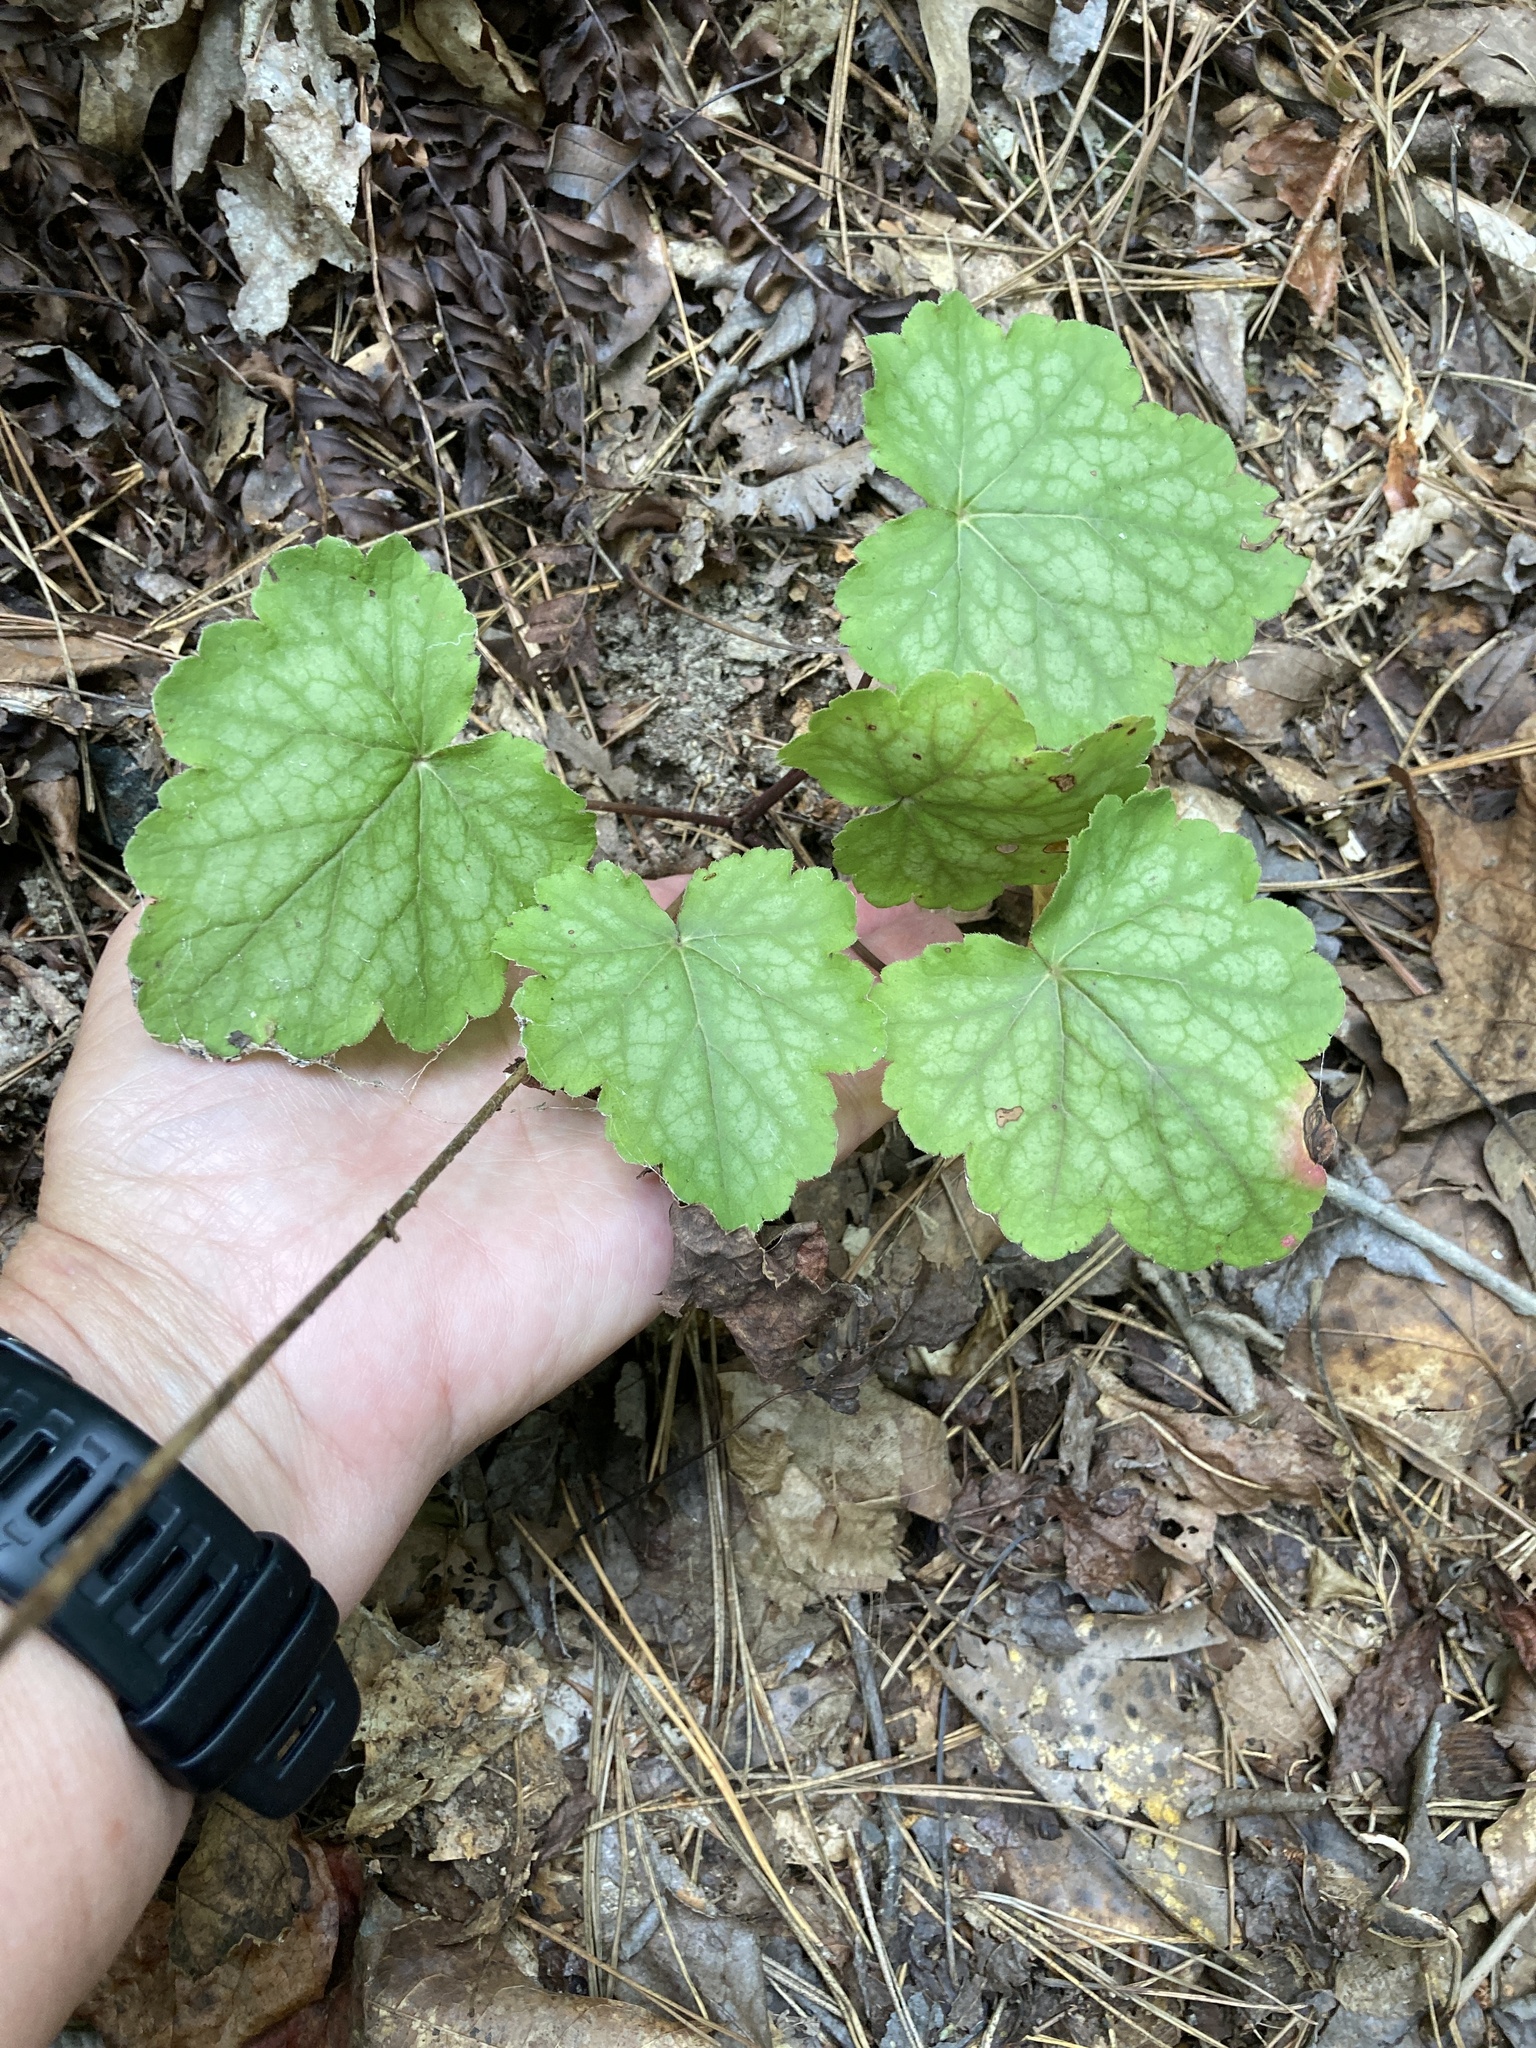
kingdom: Plantae
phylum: Tracheophyta
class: Magnoliopsida
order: Saxifragales
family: Saxifragaceae
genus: Heuchera
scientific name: Heuchera americana
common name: Alumroot
